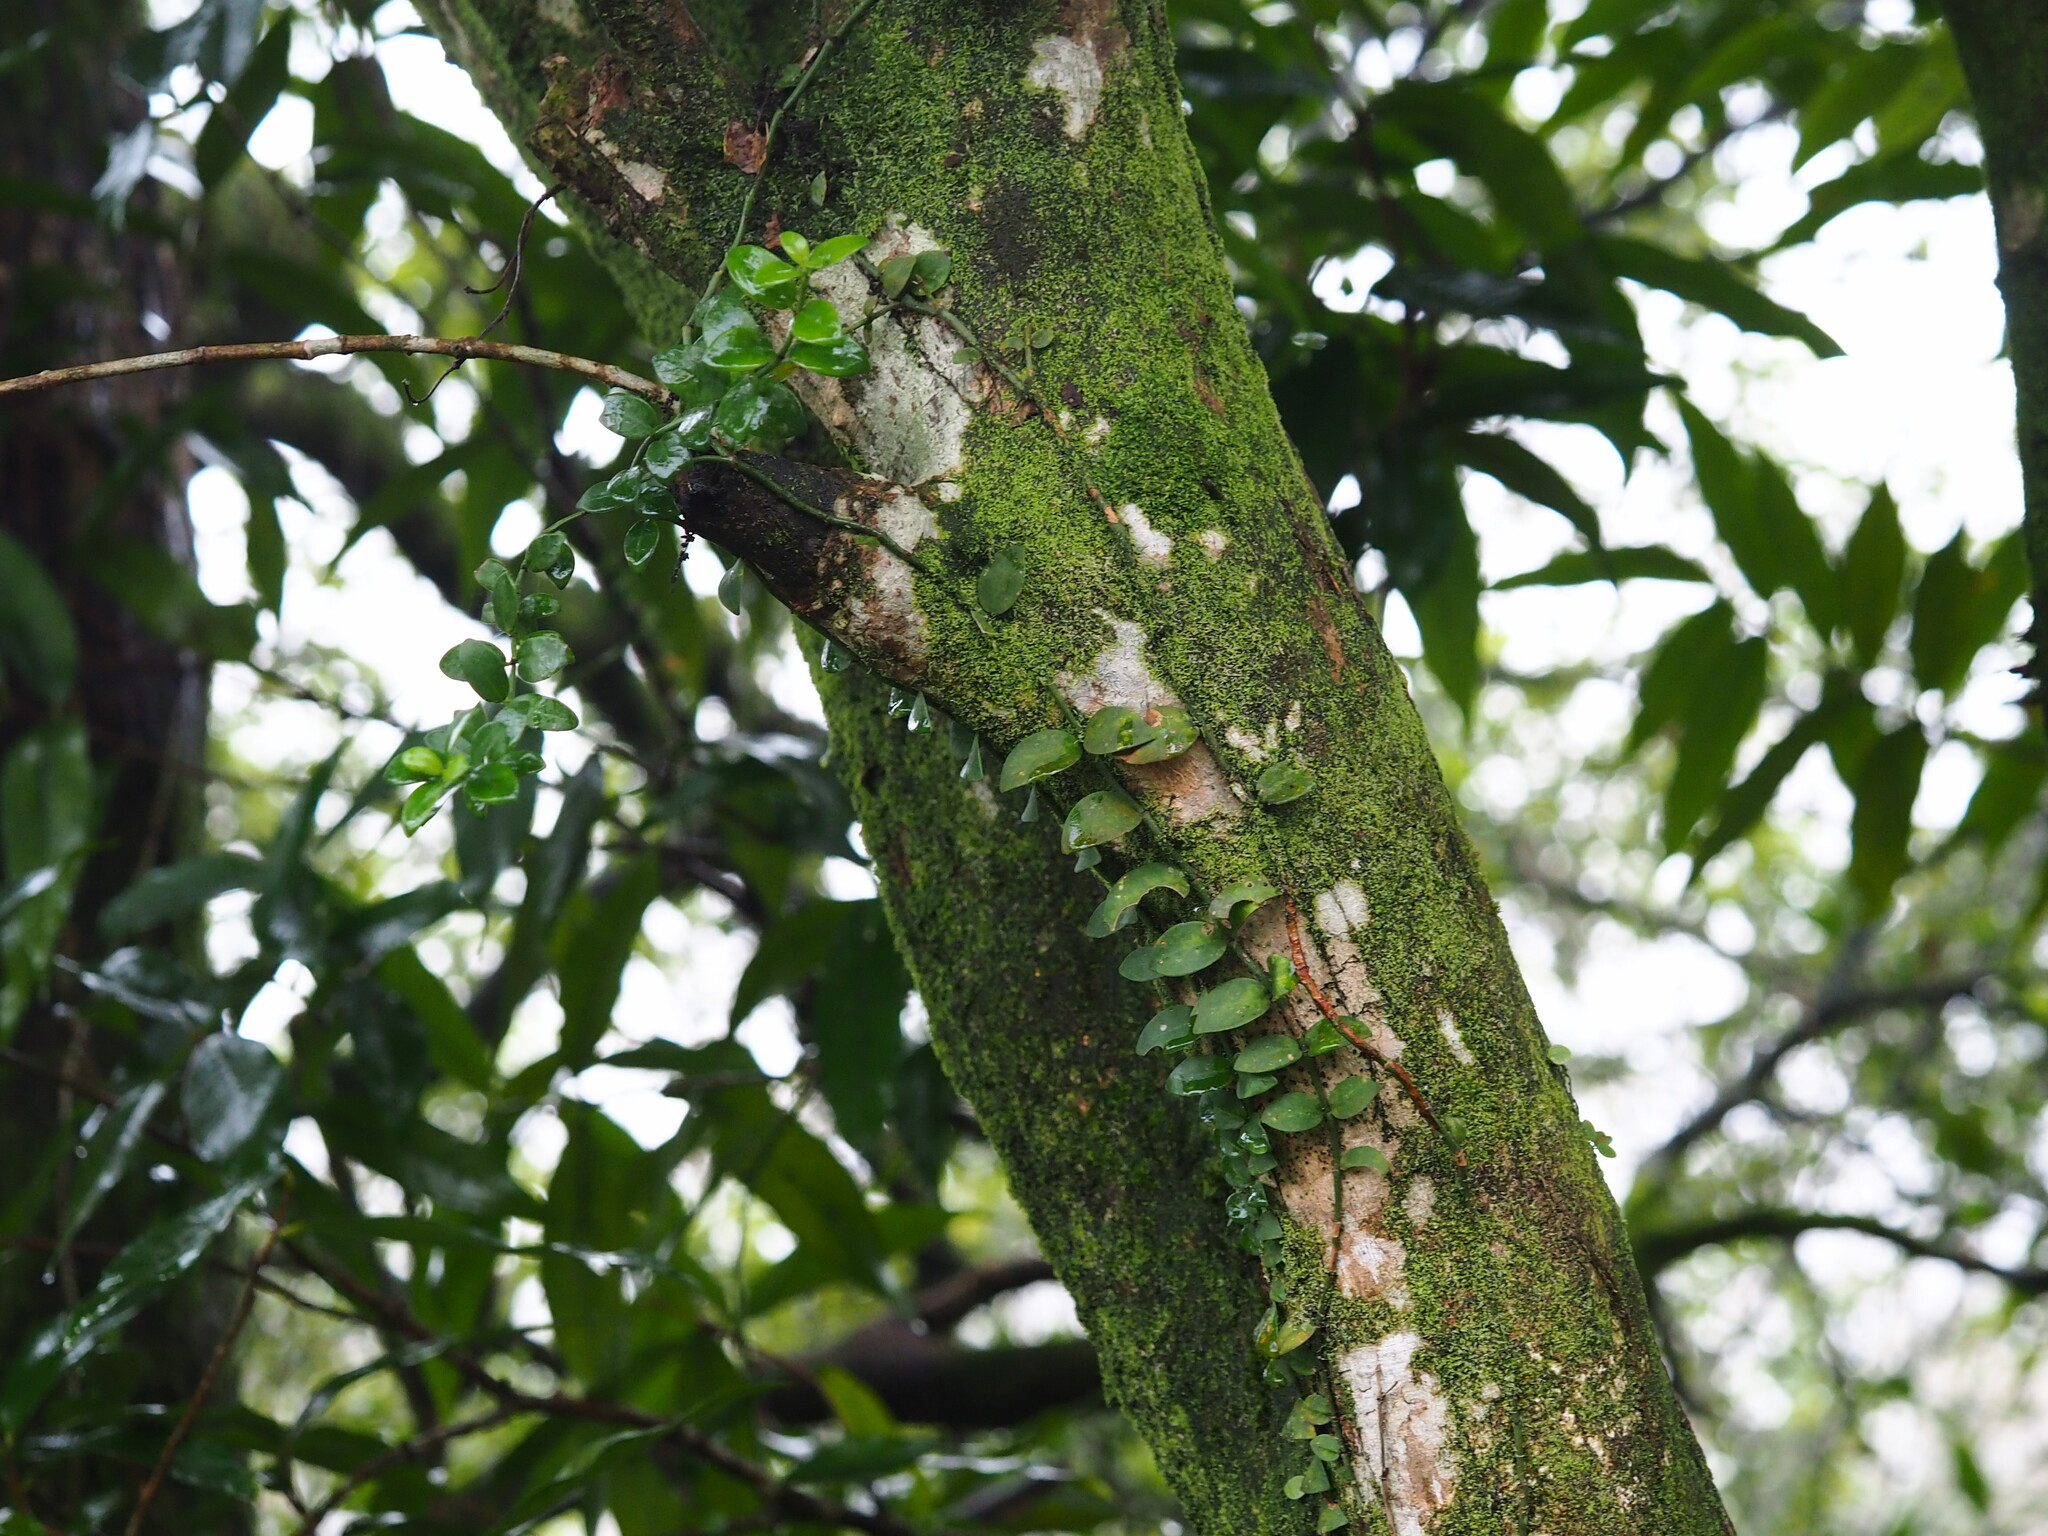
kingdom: Plantae
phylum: Tracheophyta
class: Magnoliopsida
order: Gentianales
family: Rubiaceae
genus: Psychotria
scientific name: Psychotria serpens
